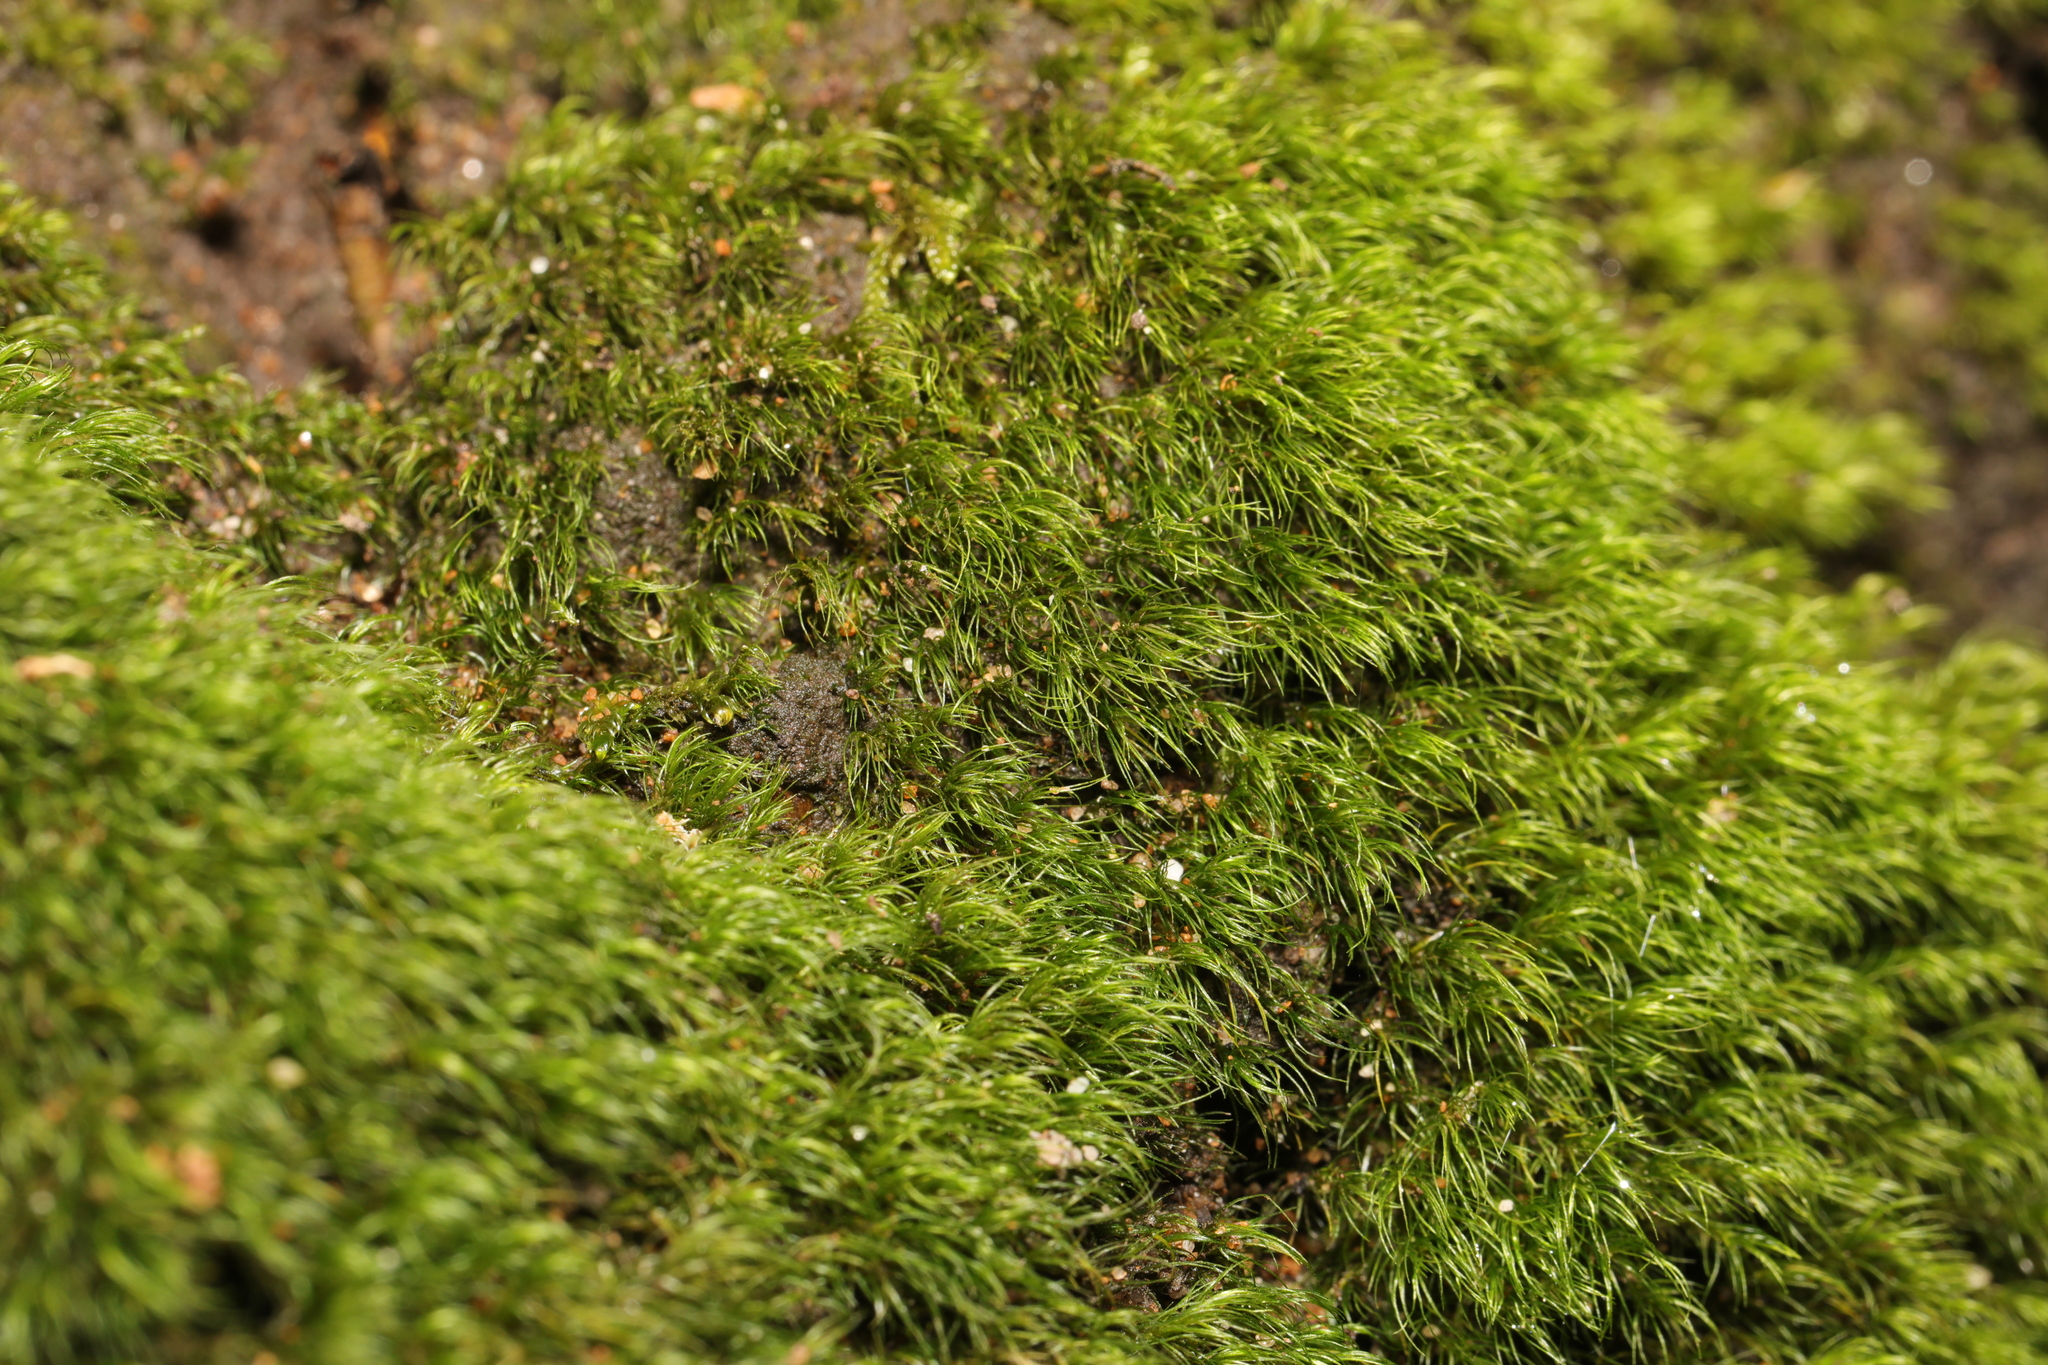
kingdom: Plantae
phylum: Bryophyta
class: Bryopsida
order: Dicranales
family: Dicranellaceae
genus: Dicranella
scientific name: Dicranella heteromalla
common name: Silky forklet moss
